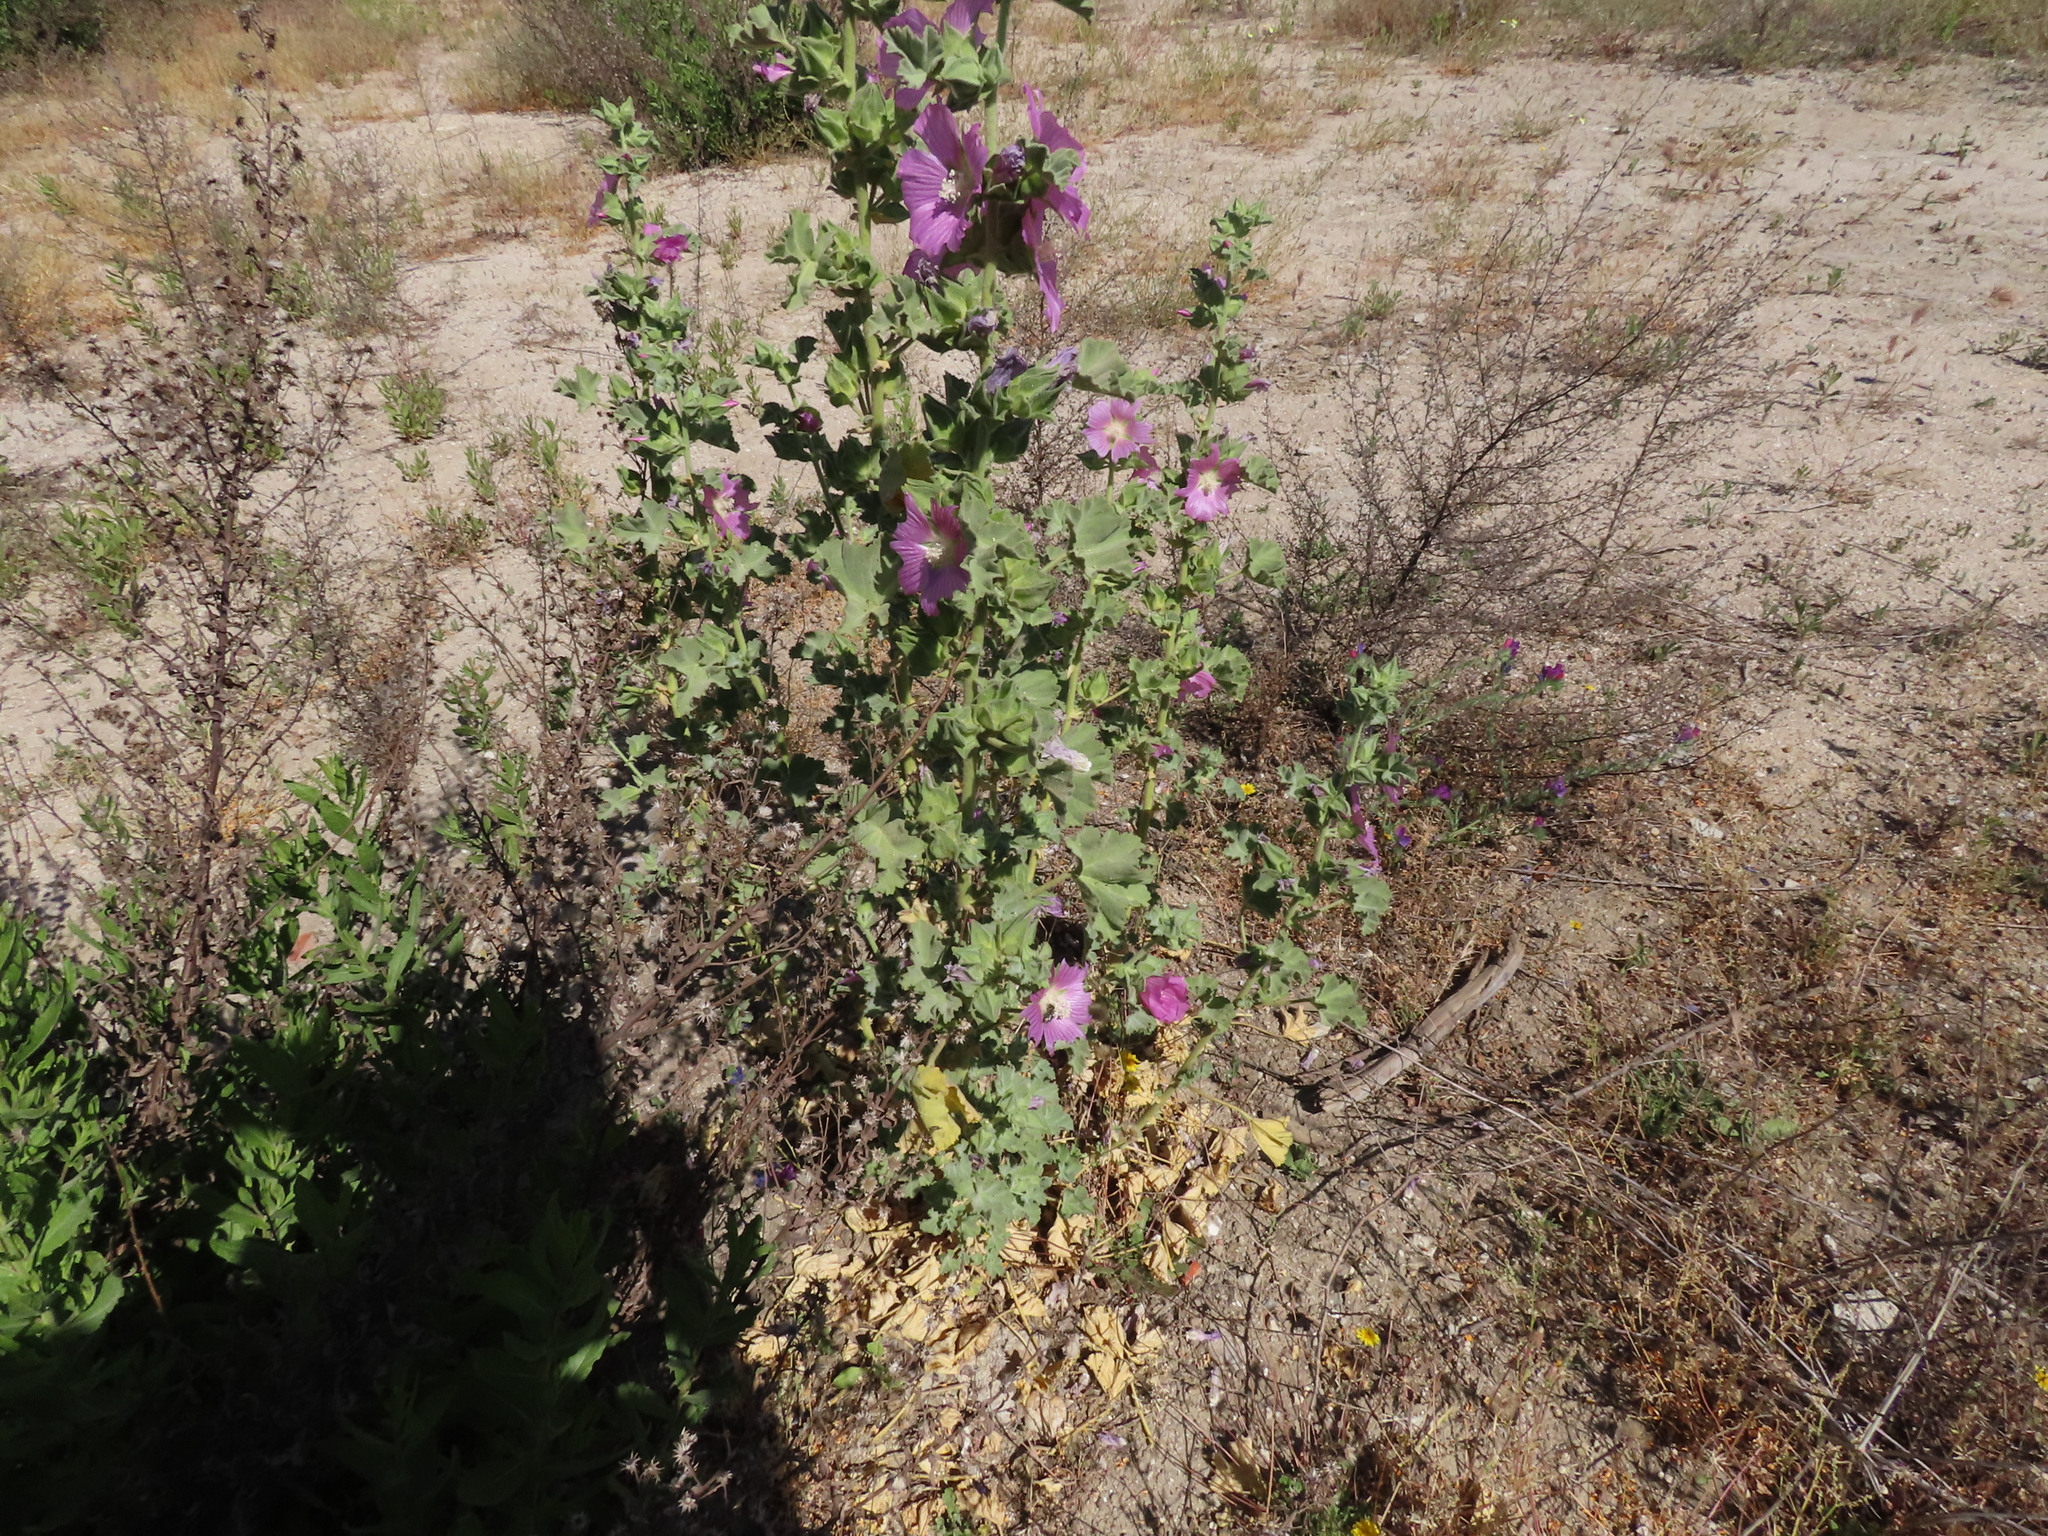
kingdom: Plantae
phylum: Tracheophyta
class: Magnoliopsida
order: Malvales
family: Malvaceae
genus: Malva
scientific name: Malva lusitanica
